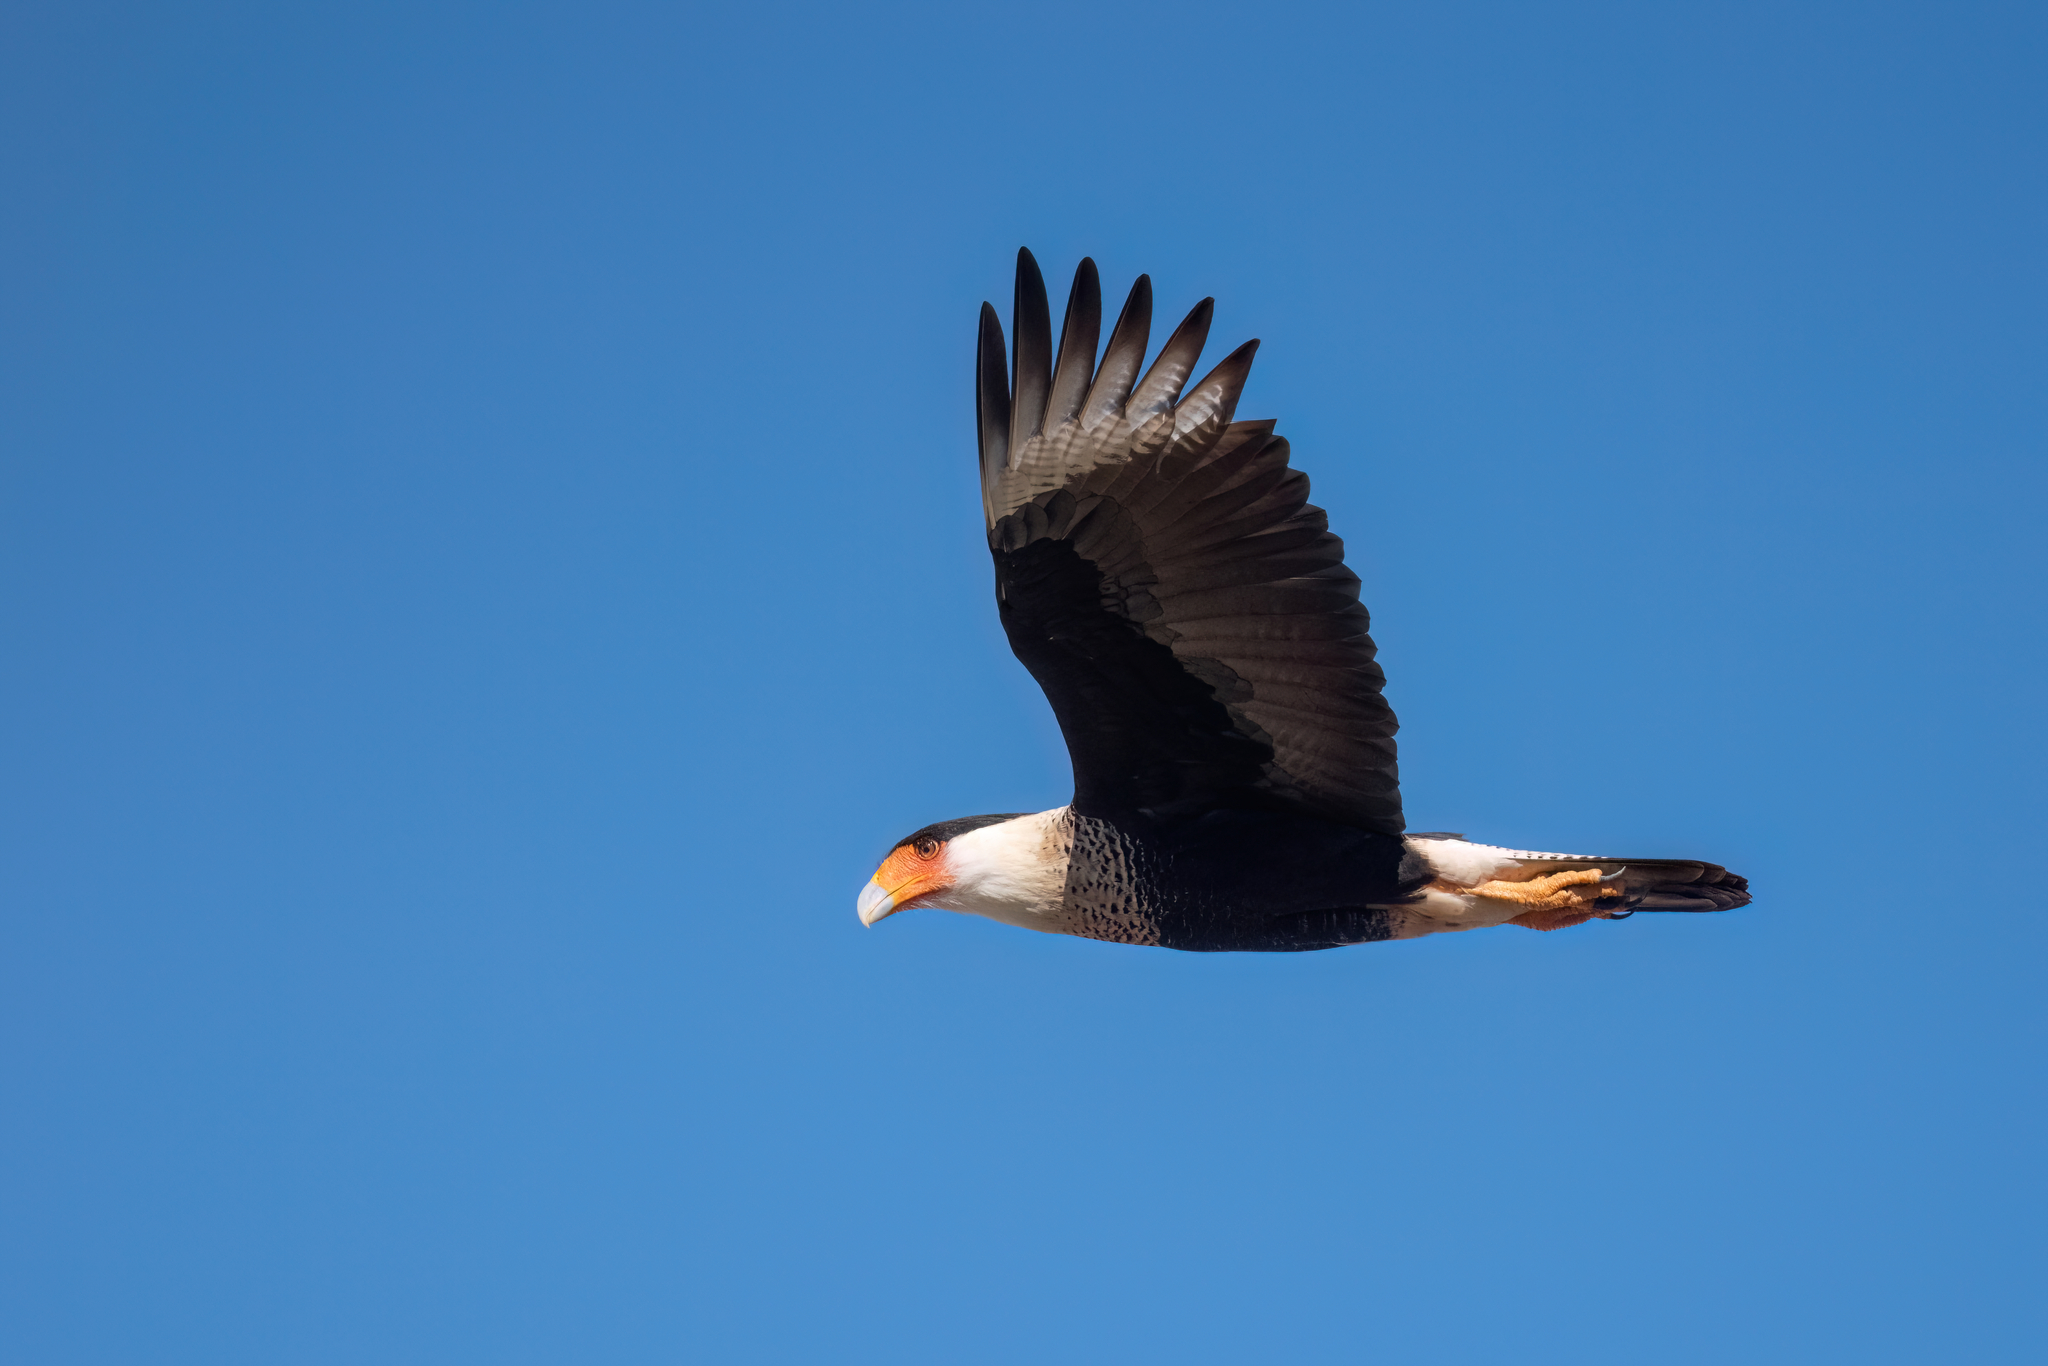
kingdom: Animalia
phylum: Chordata
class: Aves
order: Falconiformes
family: Falconidae
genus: Caracara
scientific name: Caracara plancus
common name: Southern caracara
